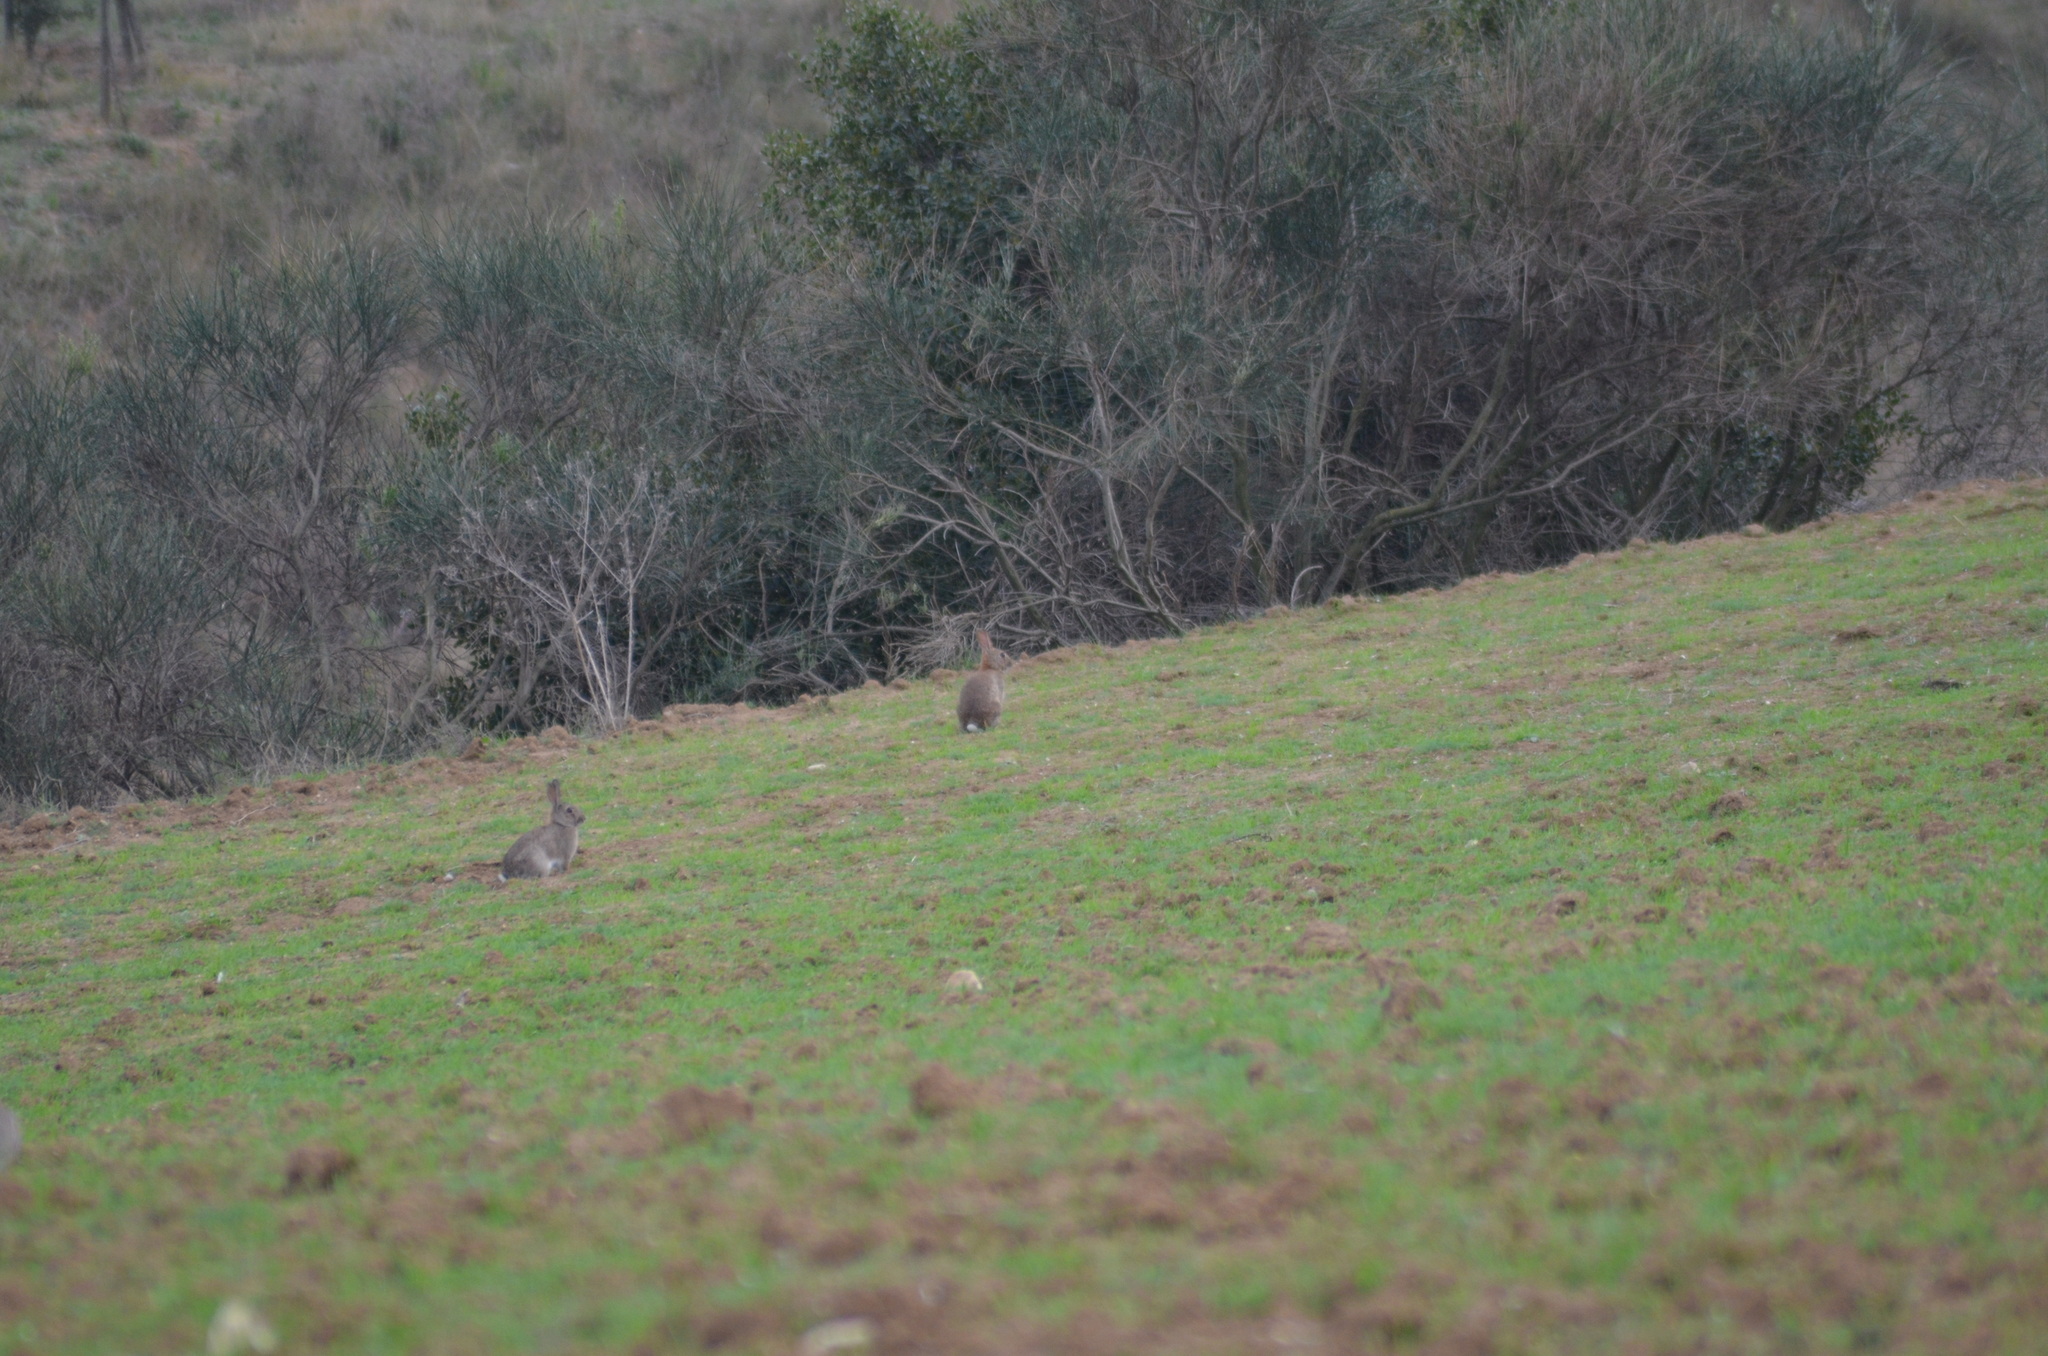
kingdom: Animalia
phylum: Chordata
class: Mammalia
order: Lagomorpha
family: Leporidae
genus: Oryctolagus
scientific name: Oryctolagus cuniculus
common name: European rabbit
